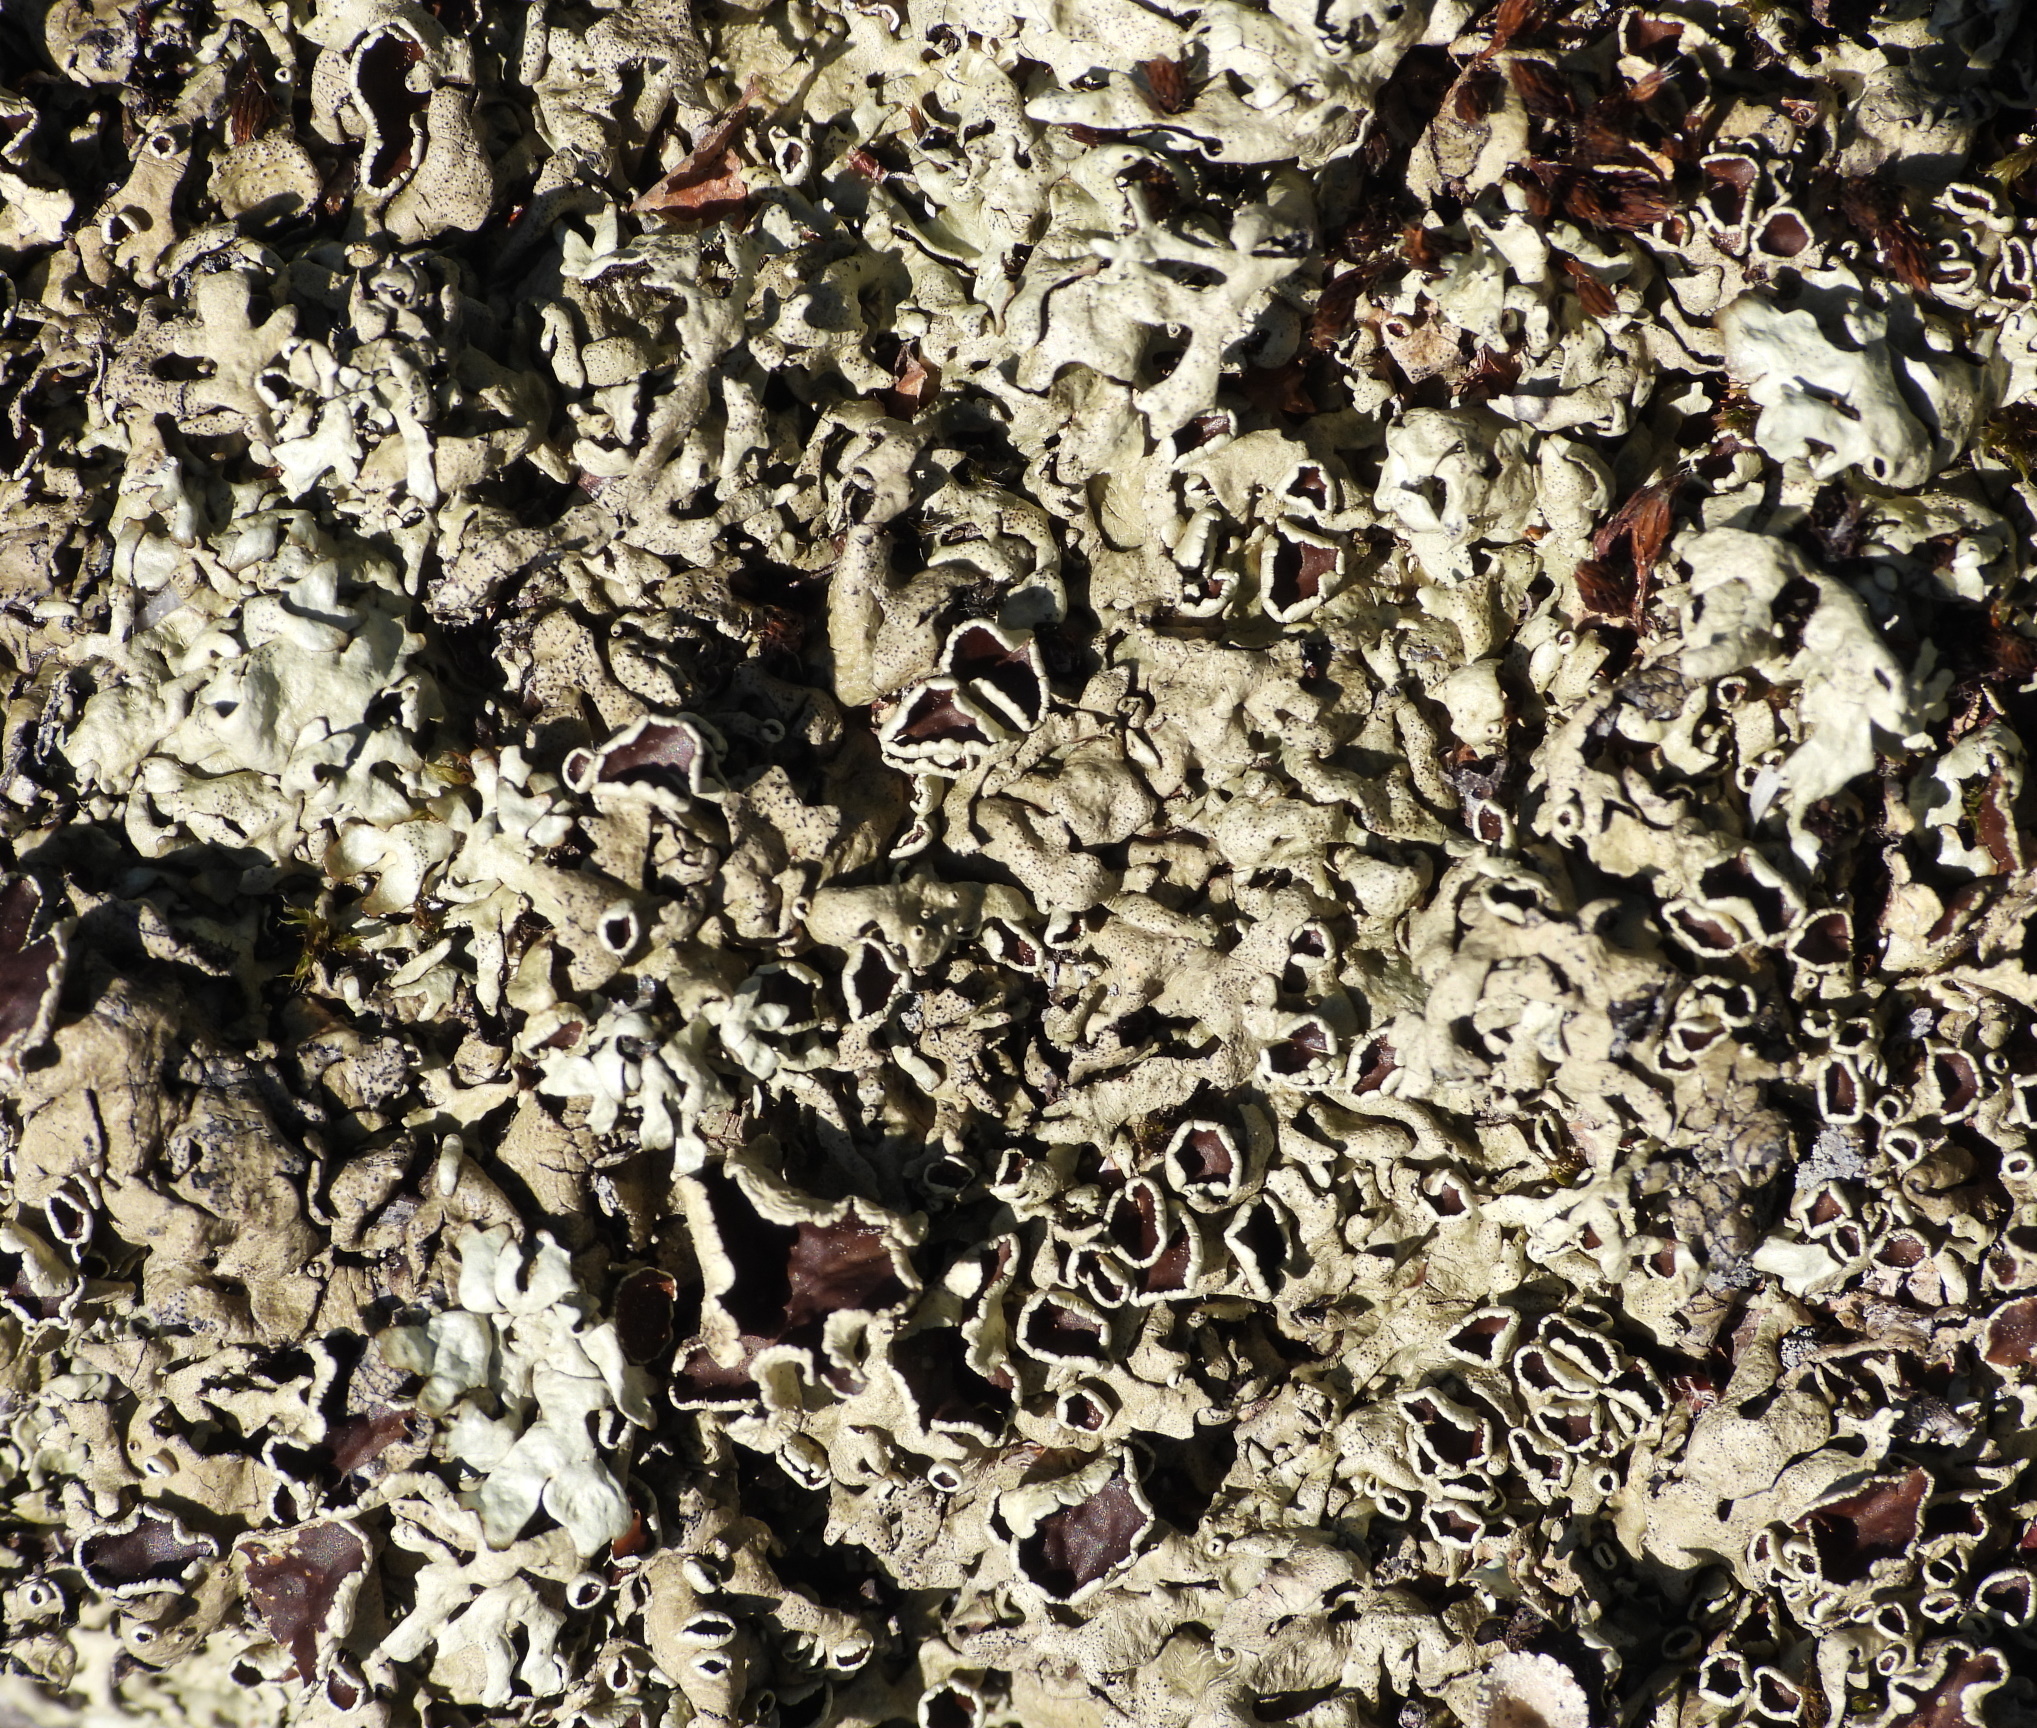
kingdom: Fungi
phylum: Ascomycota
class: Lecanoromycetes
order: Lecanorales
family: Parmeliaceae
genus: Xanthoparmelia
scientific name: Xanthoparmelia stenophylla
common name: Shingled rock shield
